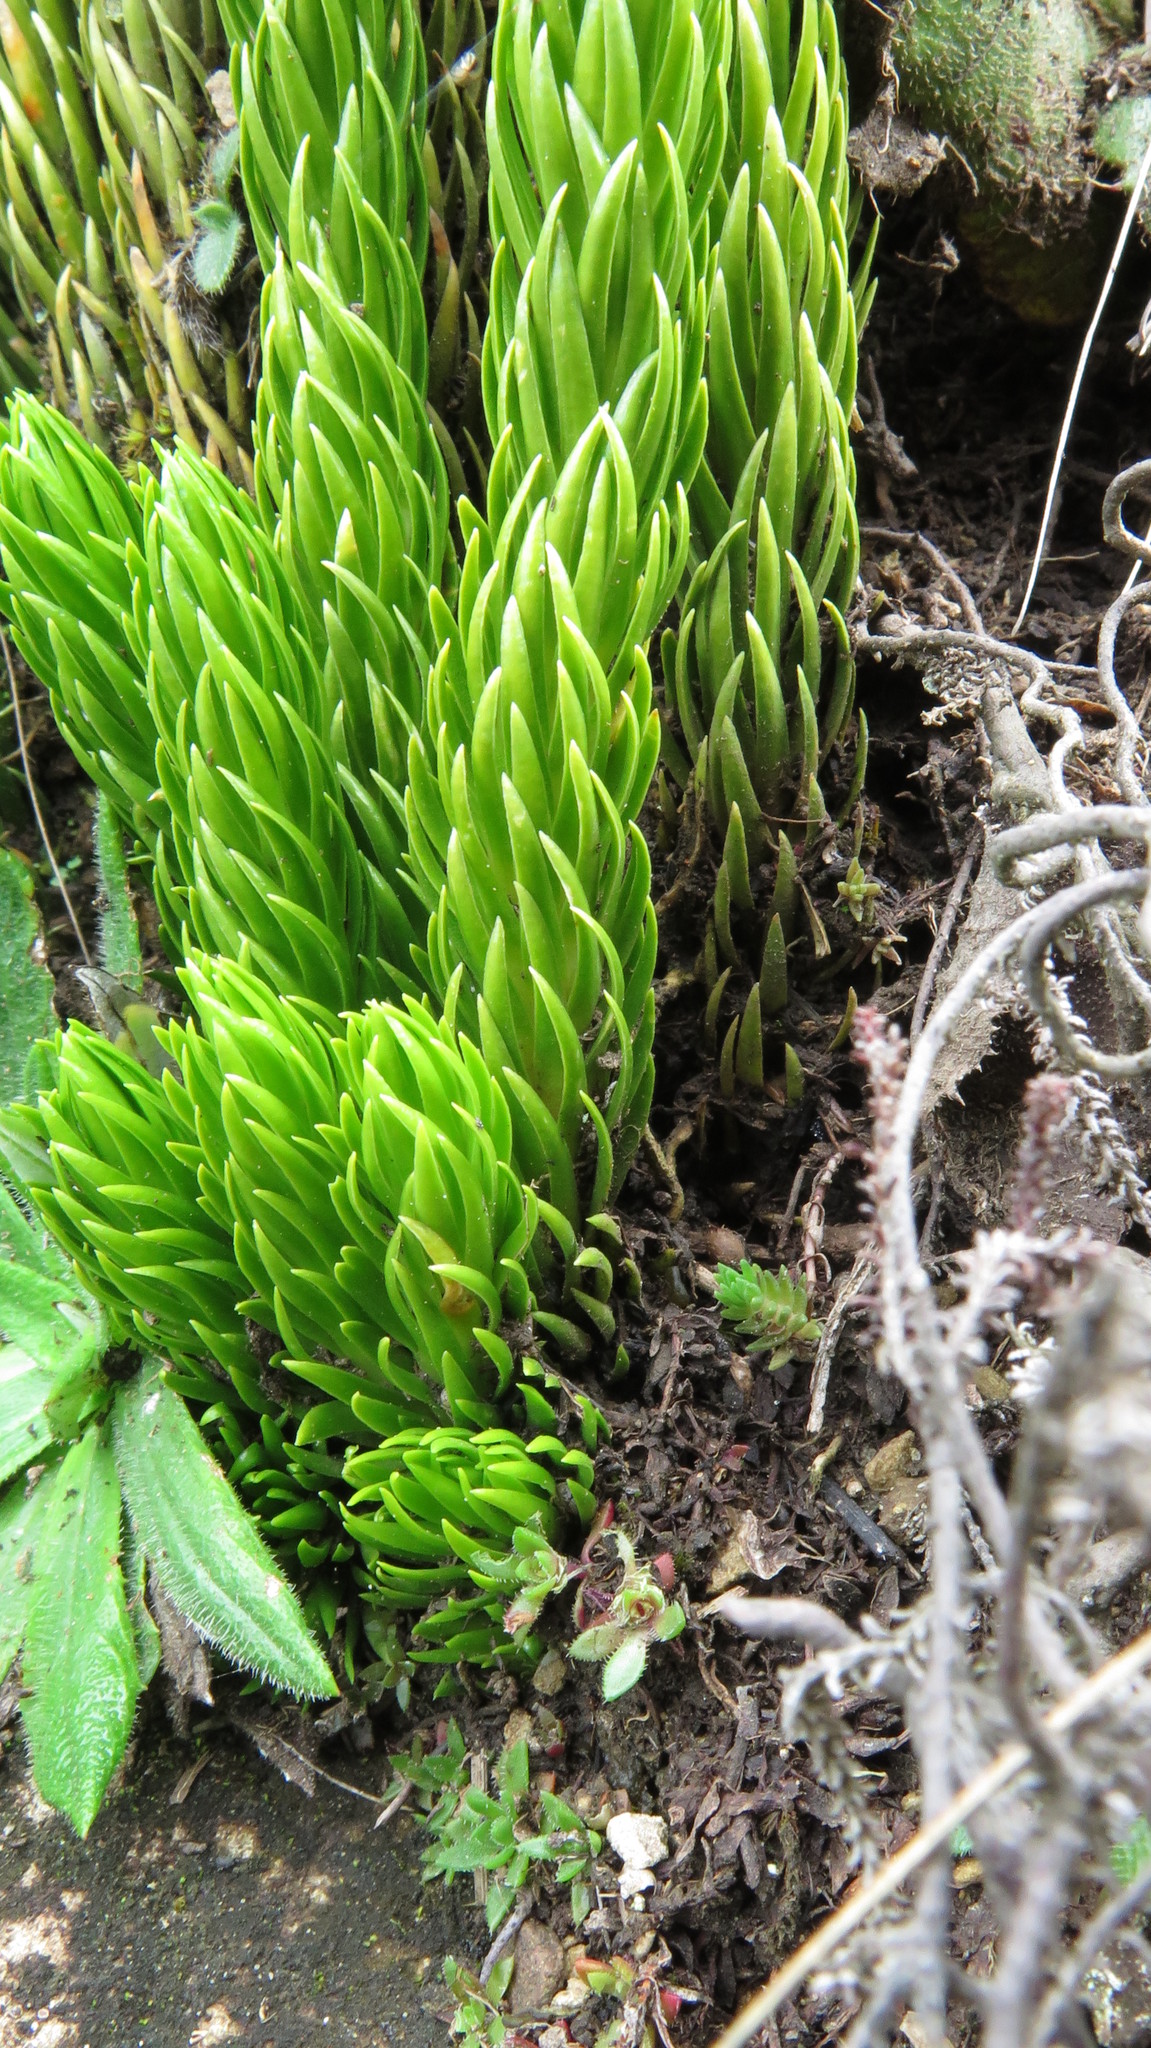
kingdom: Plantae
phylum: Tracheophyta
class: Lycopodiopsida
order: Lycopodiales
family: Lycopodiaceae
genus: Phlegmariurus
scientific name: Phlegmariurus saururus
